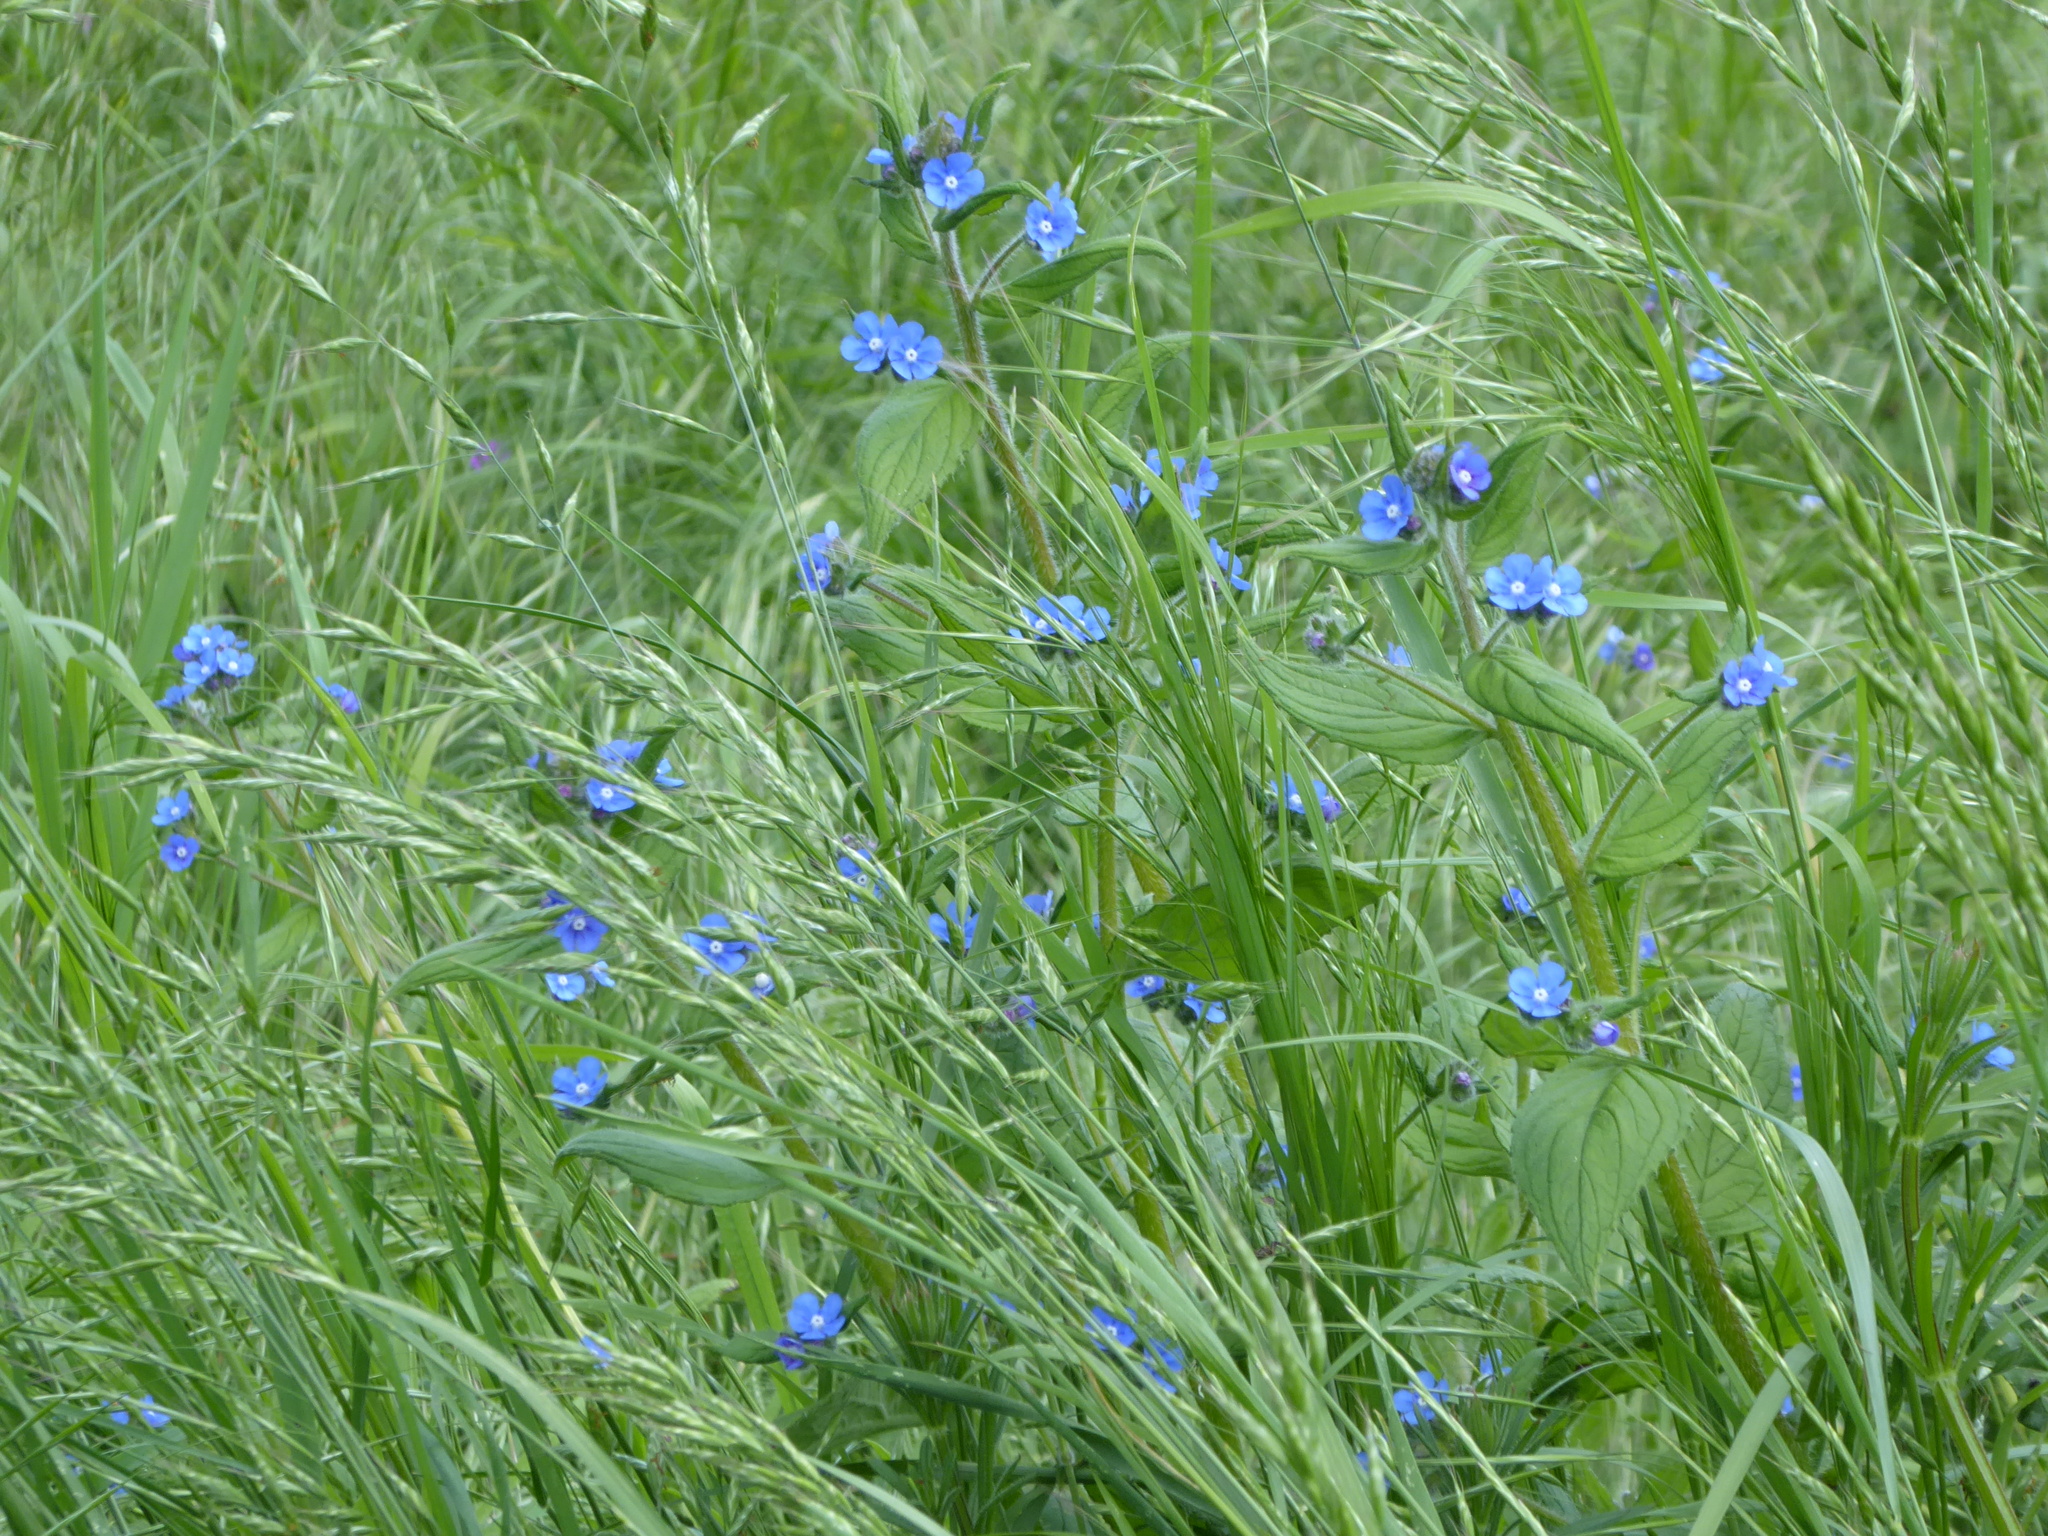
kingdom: Plantae
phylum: Tracheophyta
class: Magnoliopsida
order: Boraginales
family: Boraginaceae
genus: Pentaglottis
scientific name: Pentaglottis sempervirens
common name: Green alkanet
